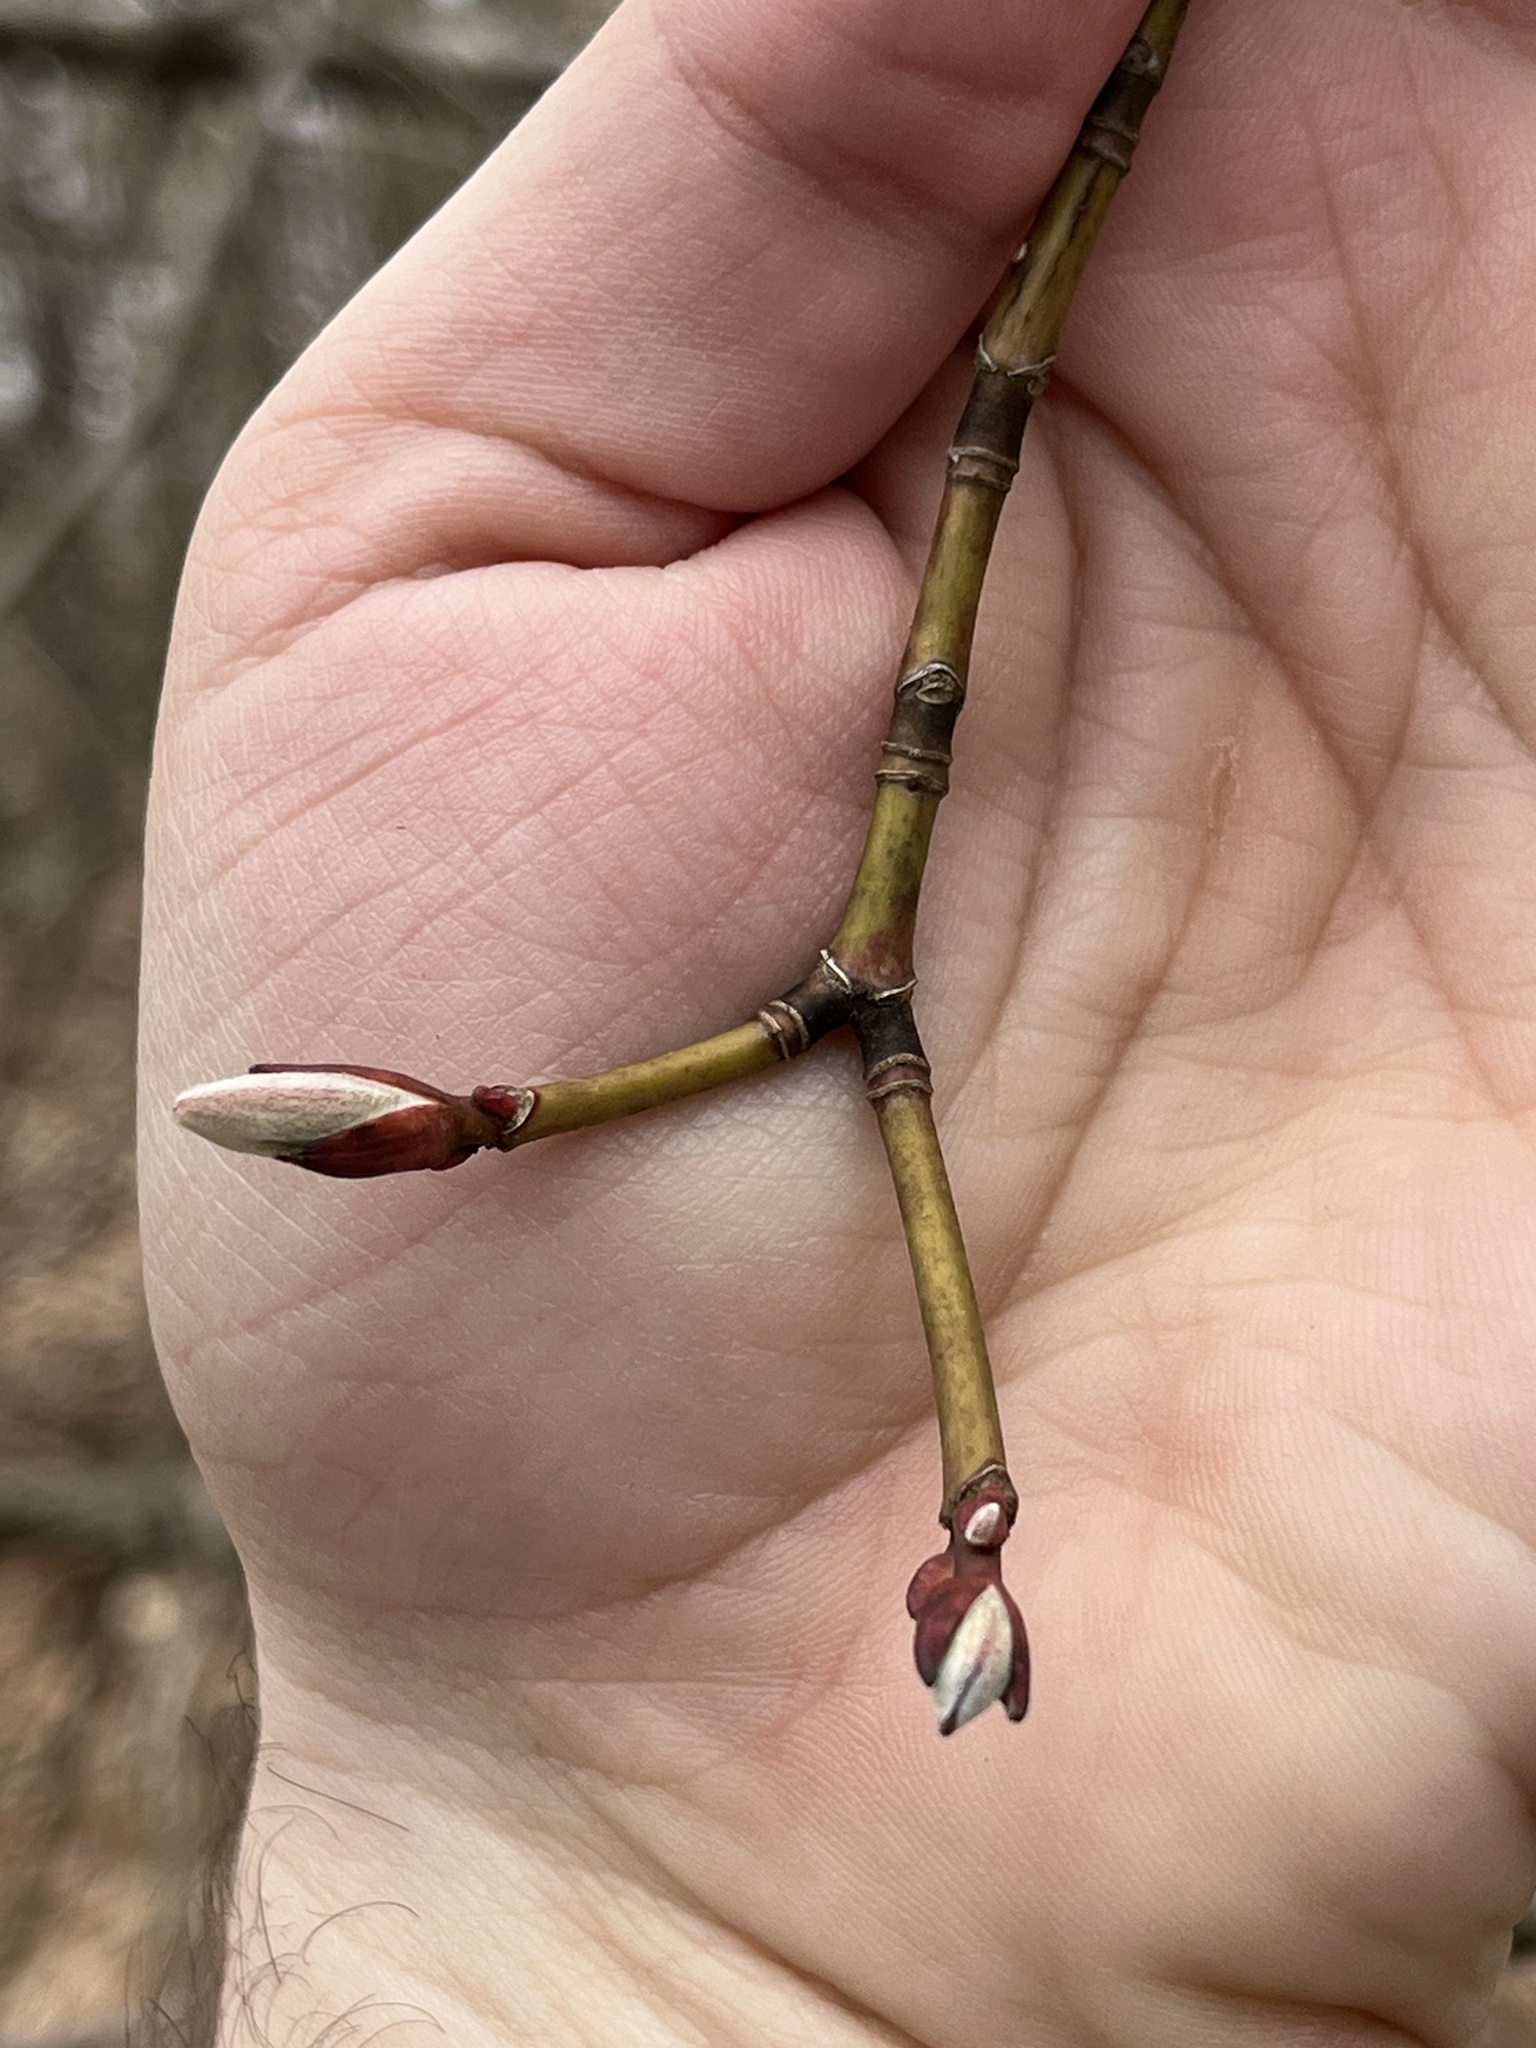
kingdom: Plantae
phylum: Tracheophyta
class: Magnoliopsida
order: Sapindales
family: Sapindaceae
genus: Acer
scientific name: Acer pensylvanicum
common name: Moosewood
